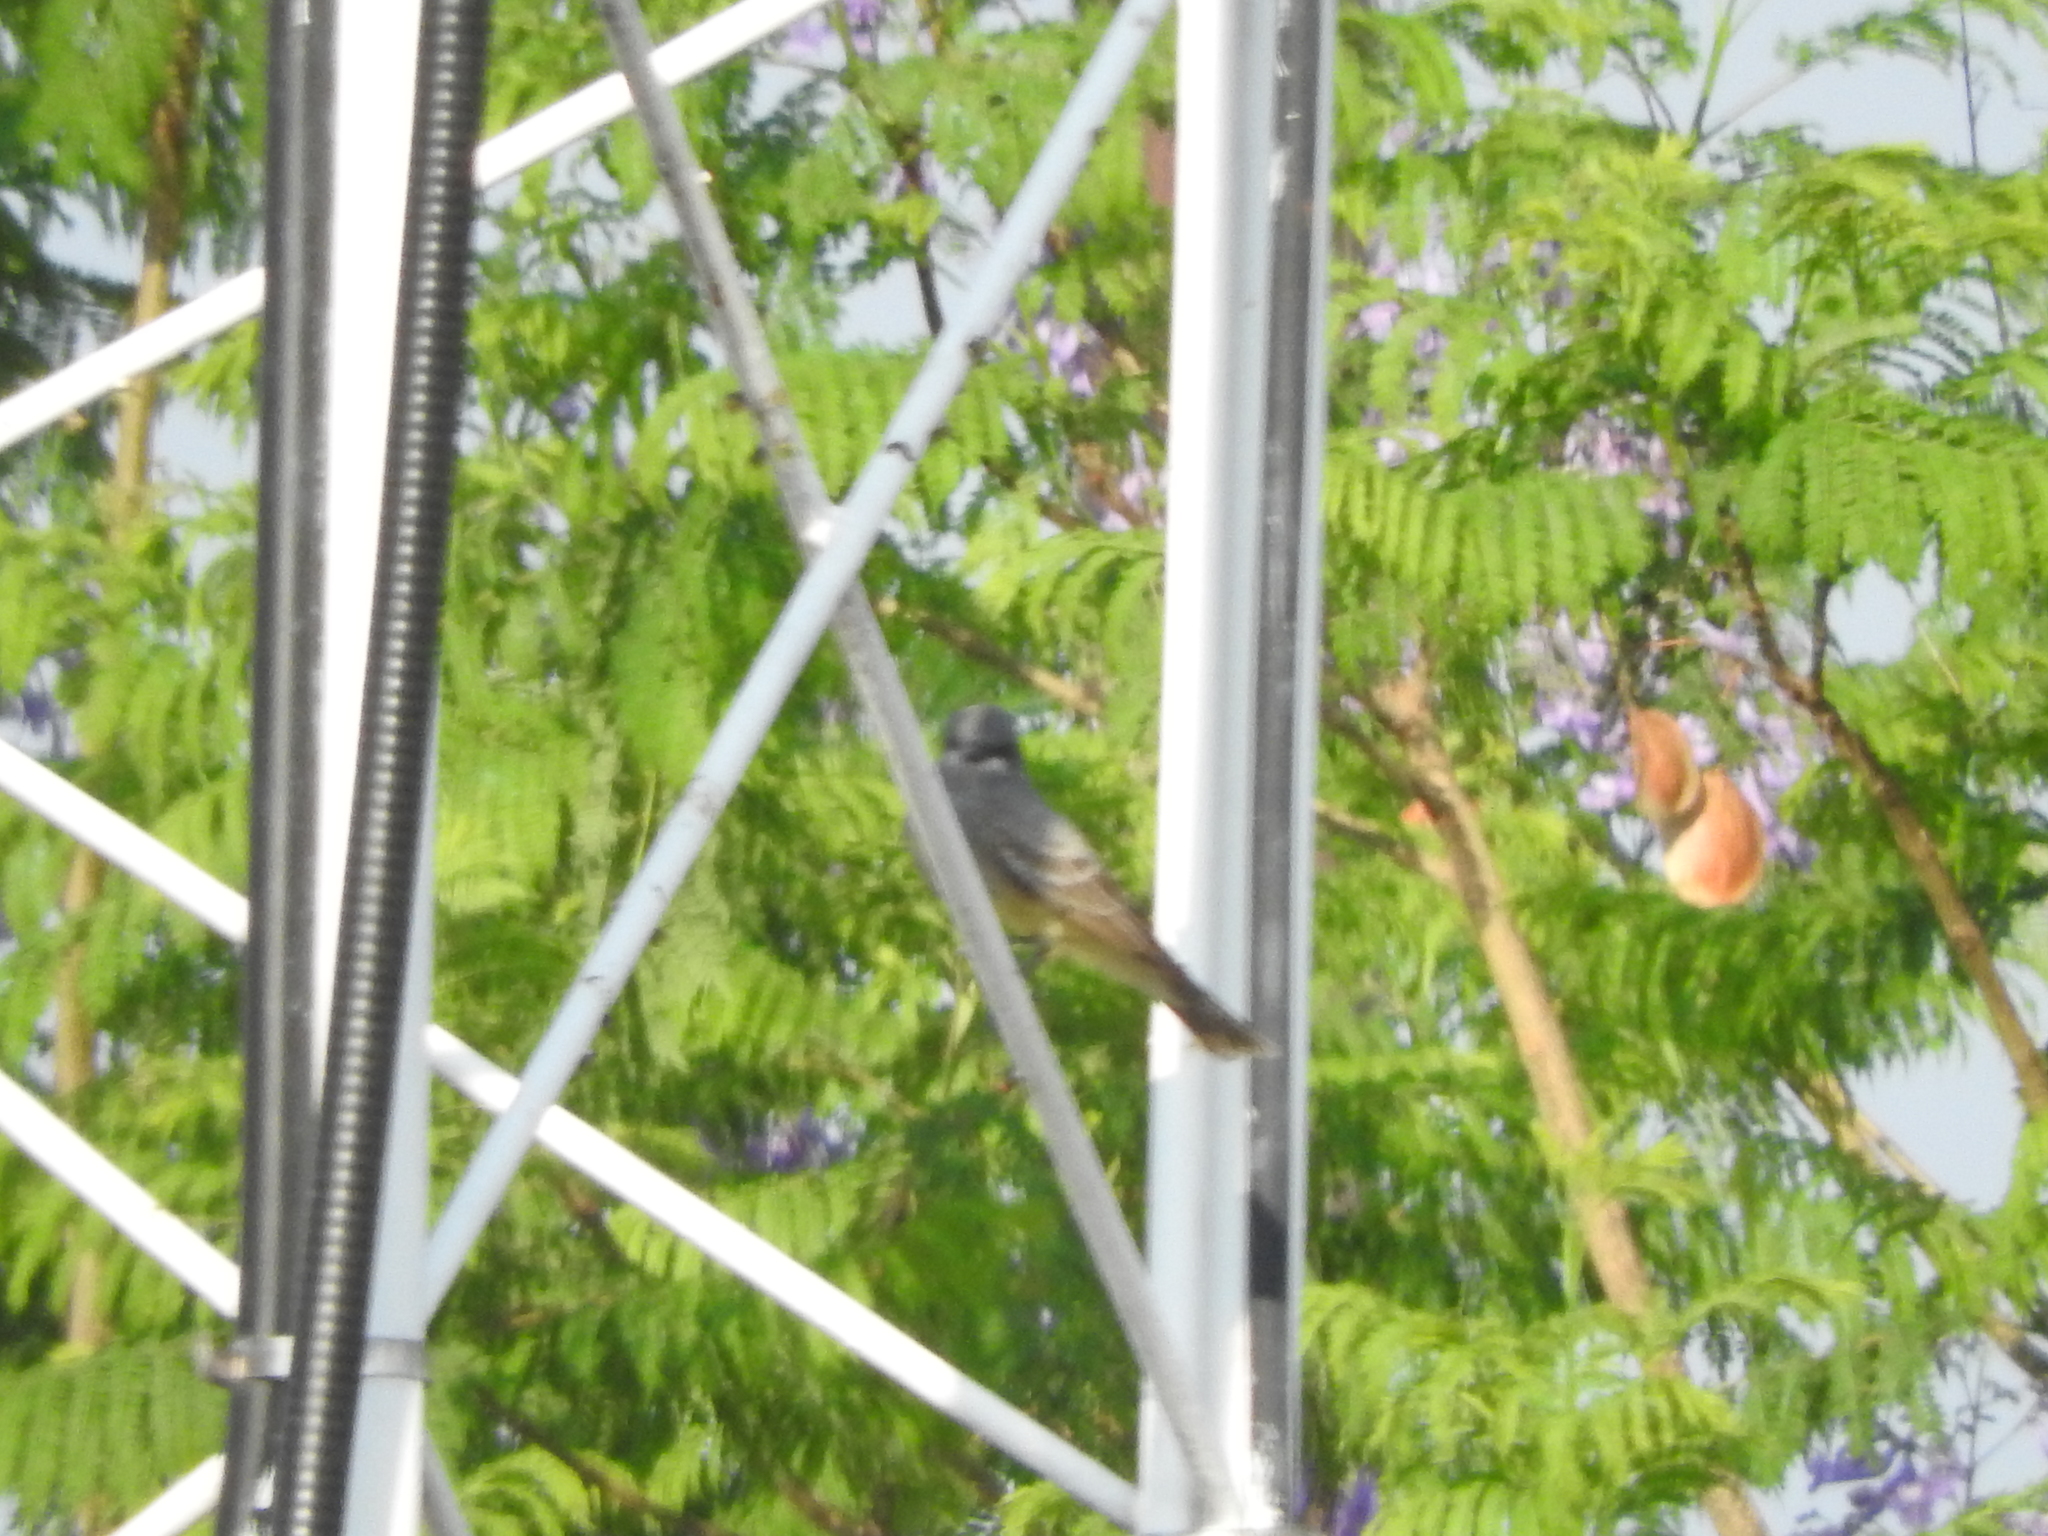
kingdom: Animalia
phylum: Chordata
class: Aves
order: Passeriformes
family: Tyrannidae
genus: Tyrannus
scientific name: Tyrannus vociferans
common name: Cassin's kingbird
